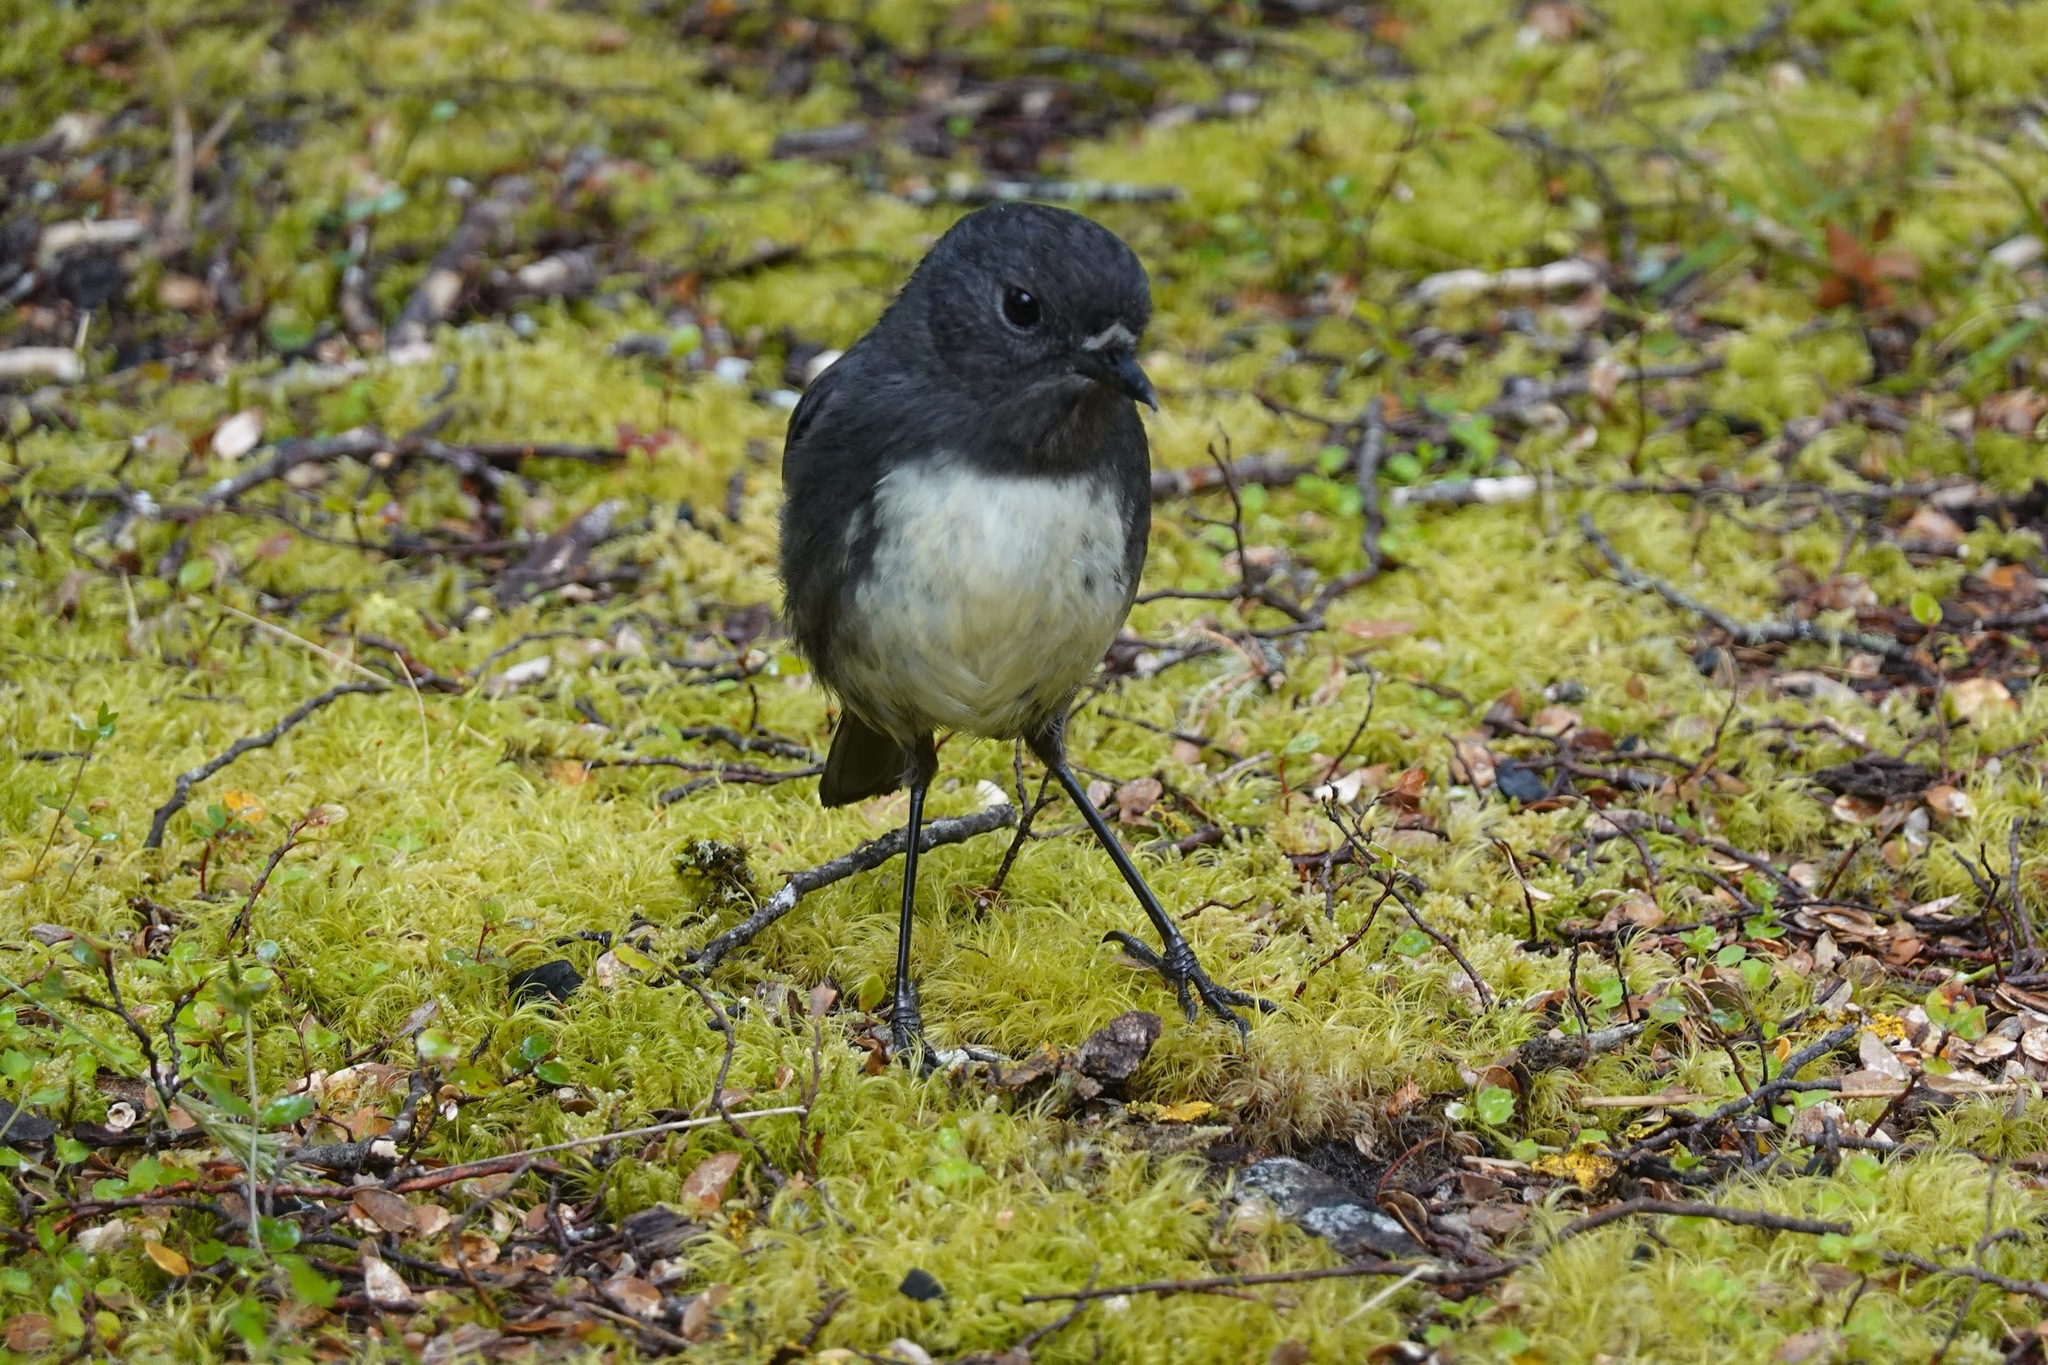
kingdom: Animalia
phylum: Chordata
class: Aves
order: Passeriformes
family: Petroicidae
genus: Petroica
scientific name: Petroica australis
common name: New zealand robin
